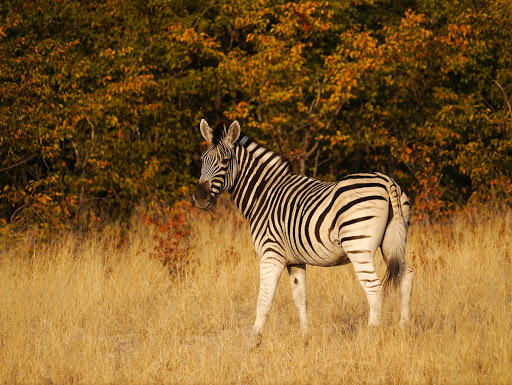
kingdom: Animalia
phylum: Chordata
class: Mammalia
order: Perissodactyla
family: Equidae
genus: Equus
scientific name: Equus quagga
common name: Plains zebra
